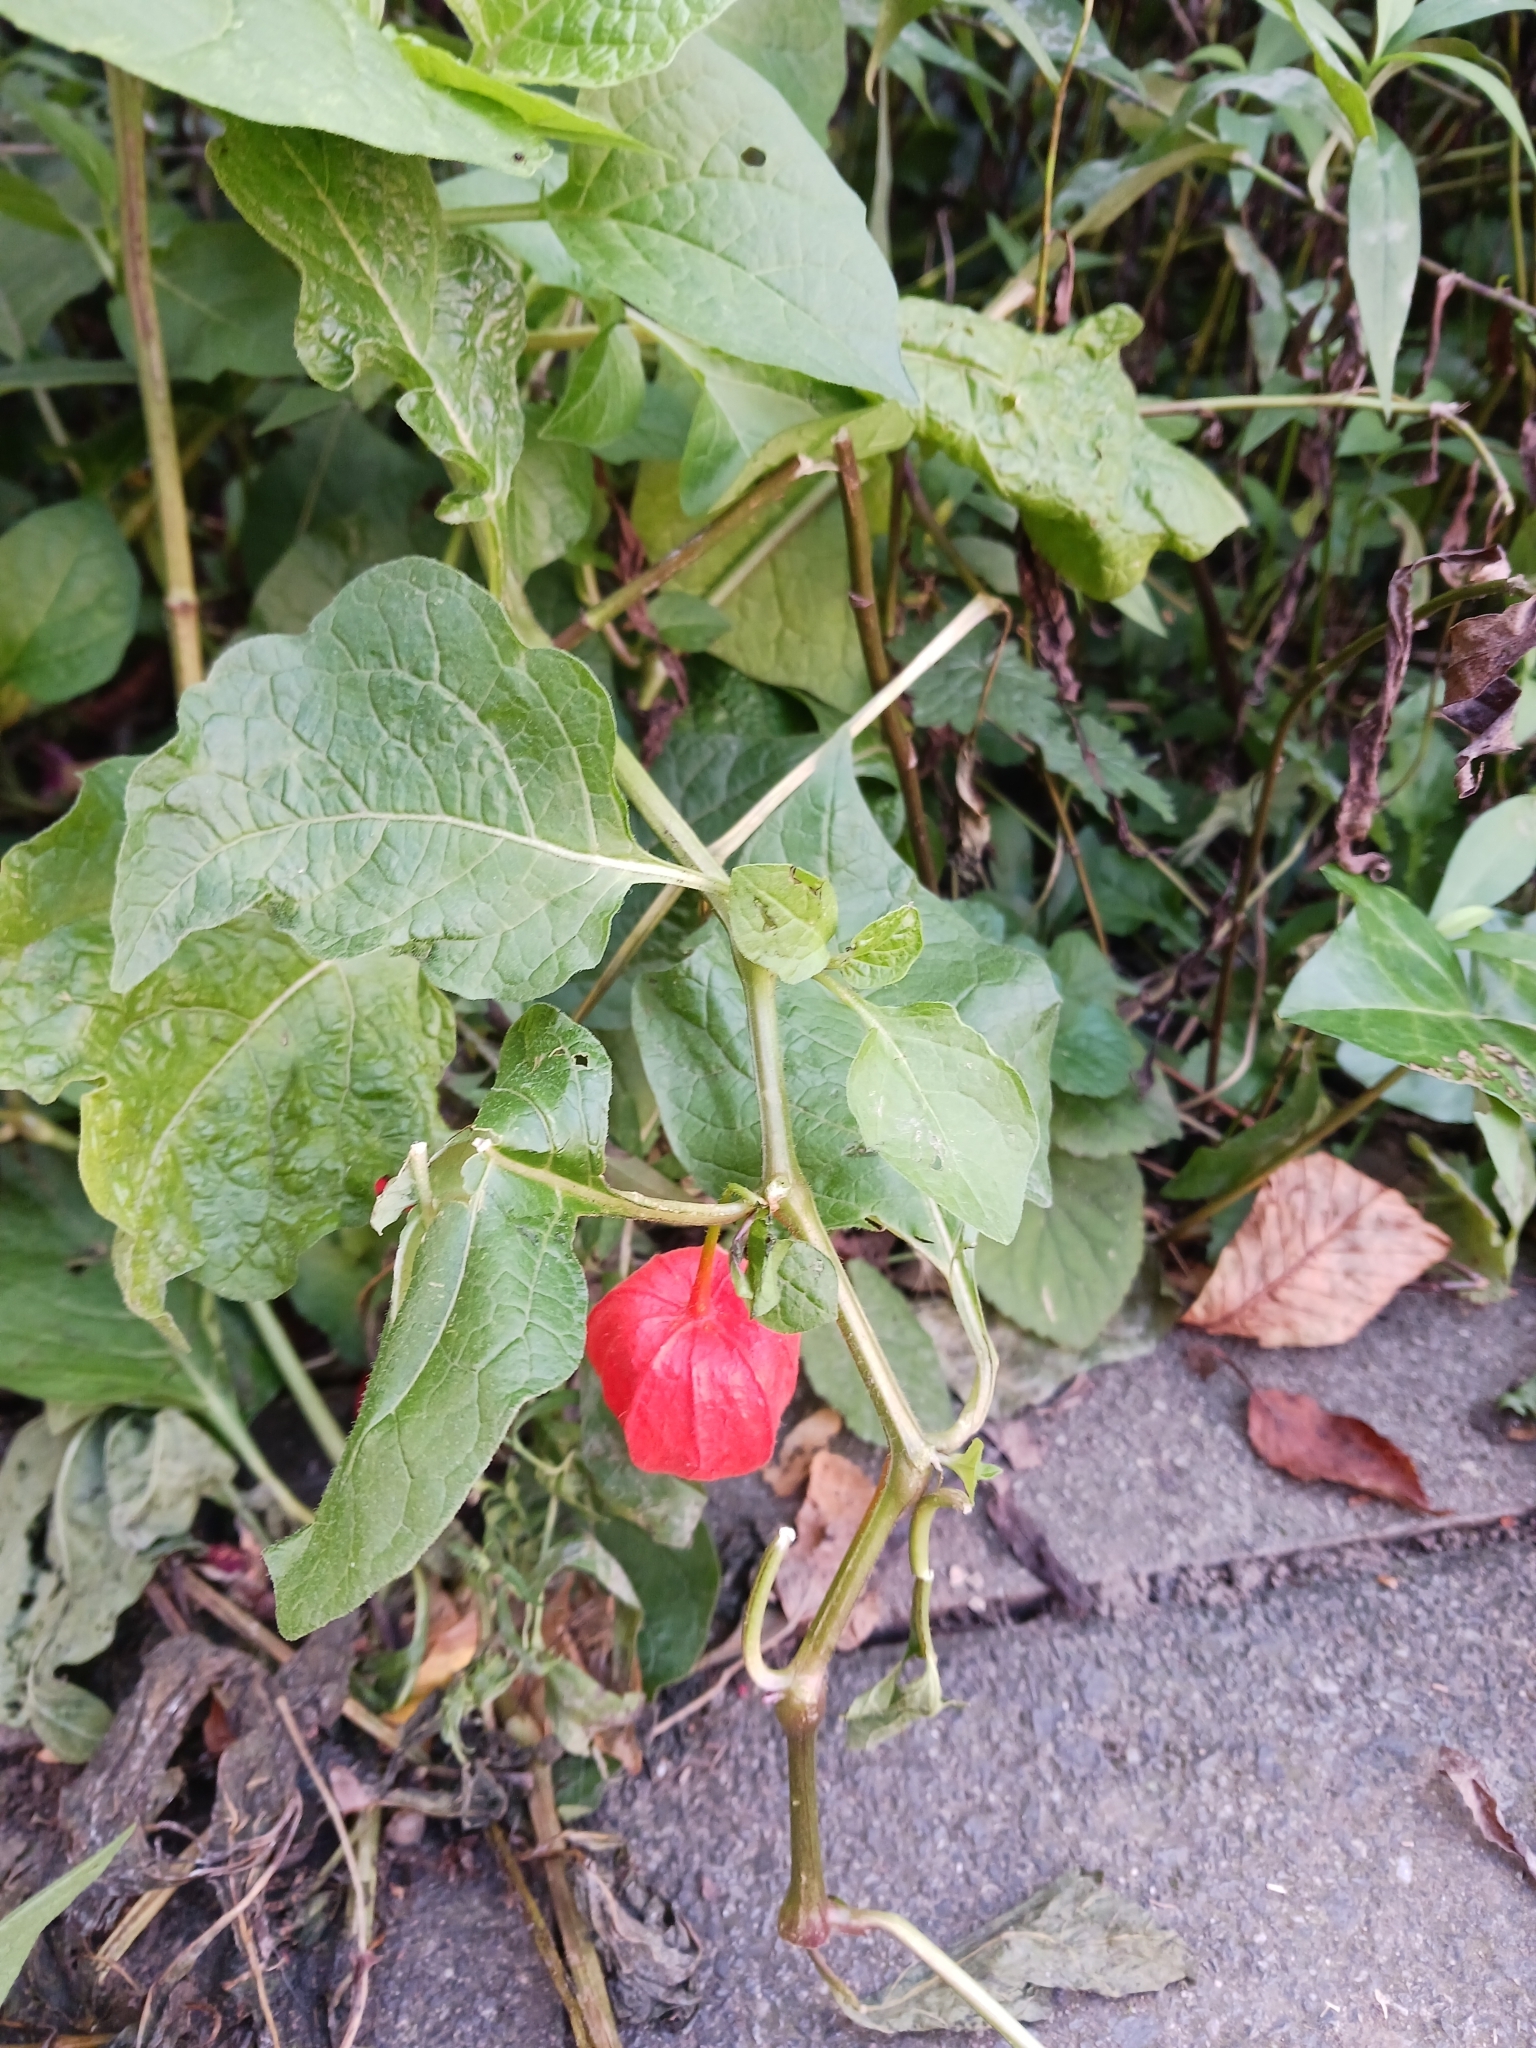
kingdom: Plantae
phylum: Tracheophyta
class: Magnoliopsida
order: Solanales
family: Solanaceae
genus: Alkekengi
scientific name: Alkekengi officinarum
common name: Japanese-lantern
